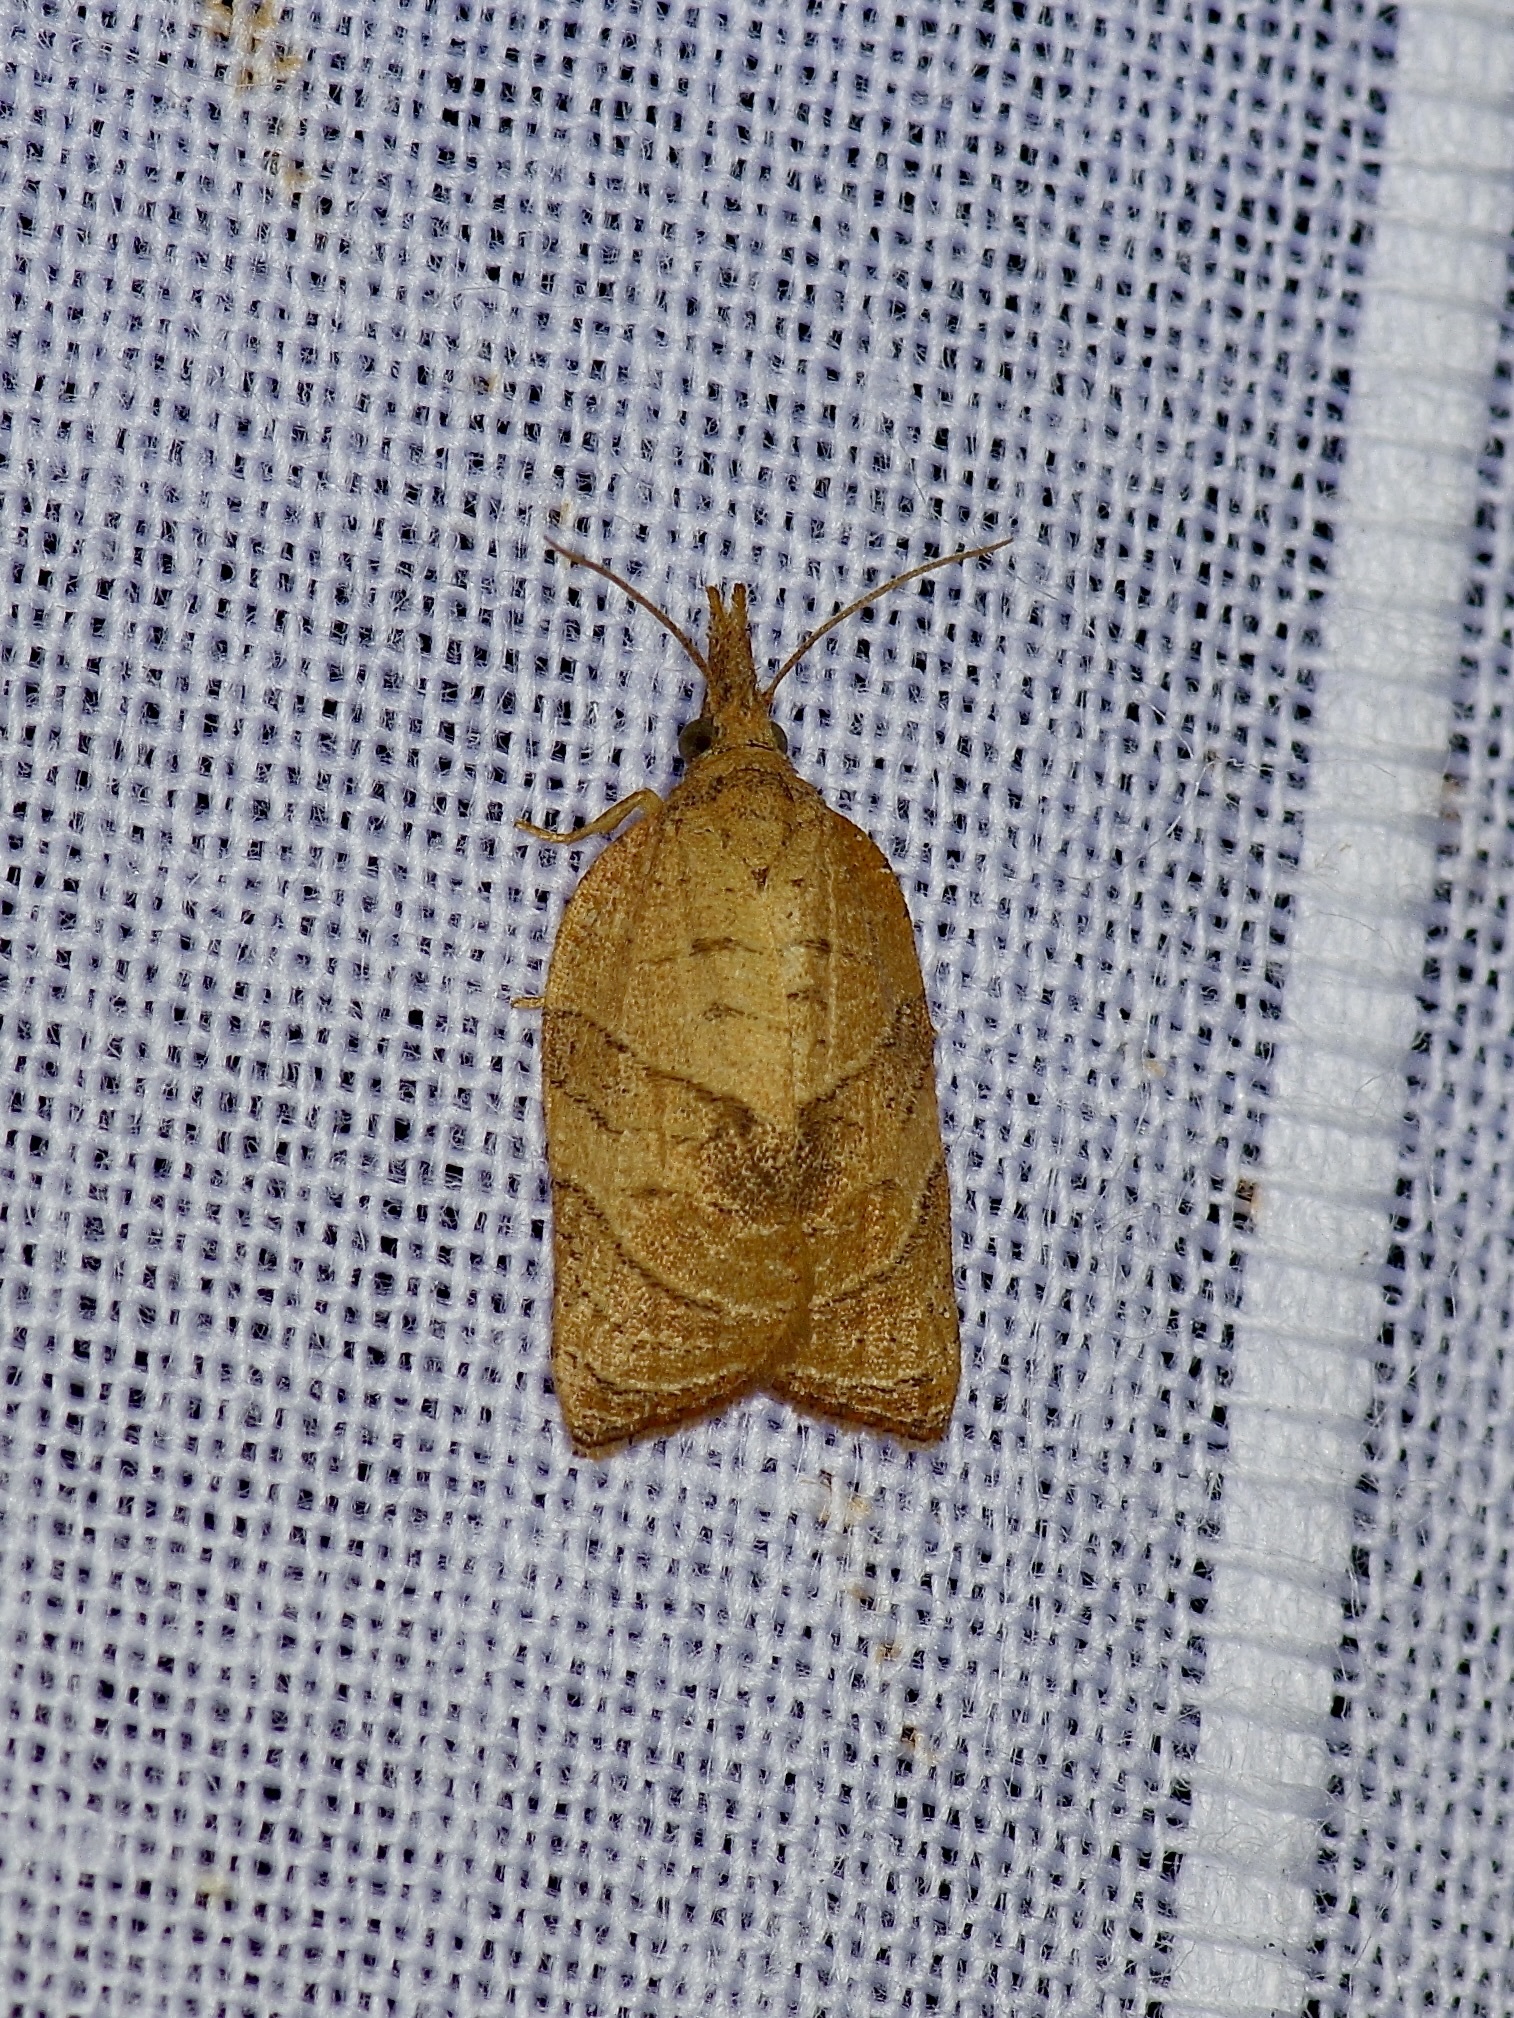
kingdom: Animalia
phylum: Arthropoda
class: Insecta
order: Lepidoptera
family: Tortricidae
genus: Platynota
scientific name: Platynota rostrana
